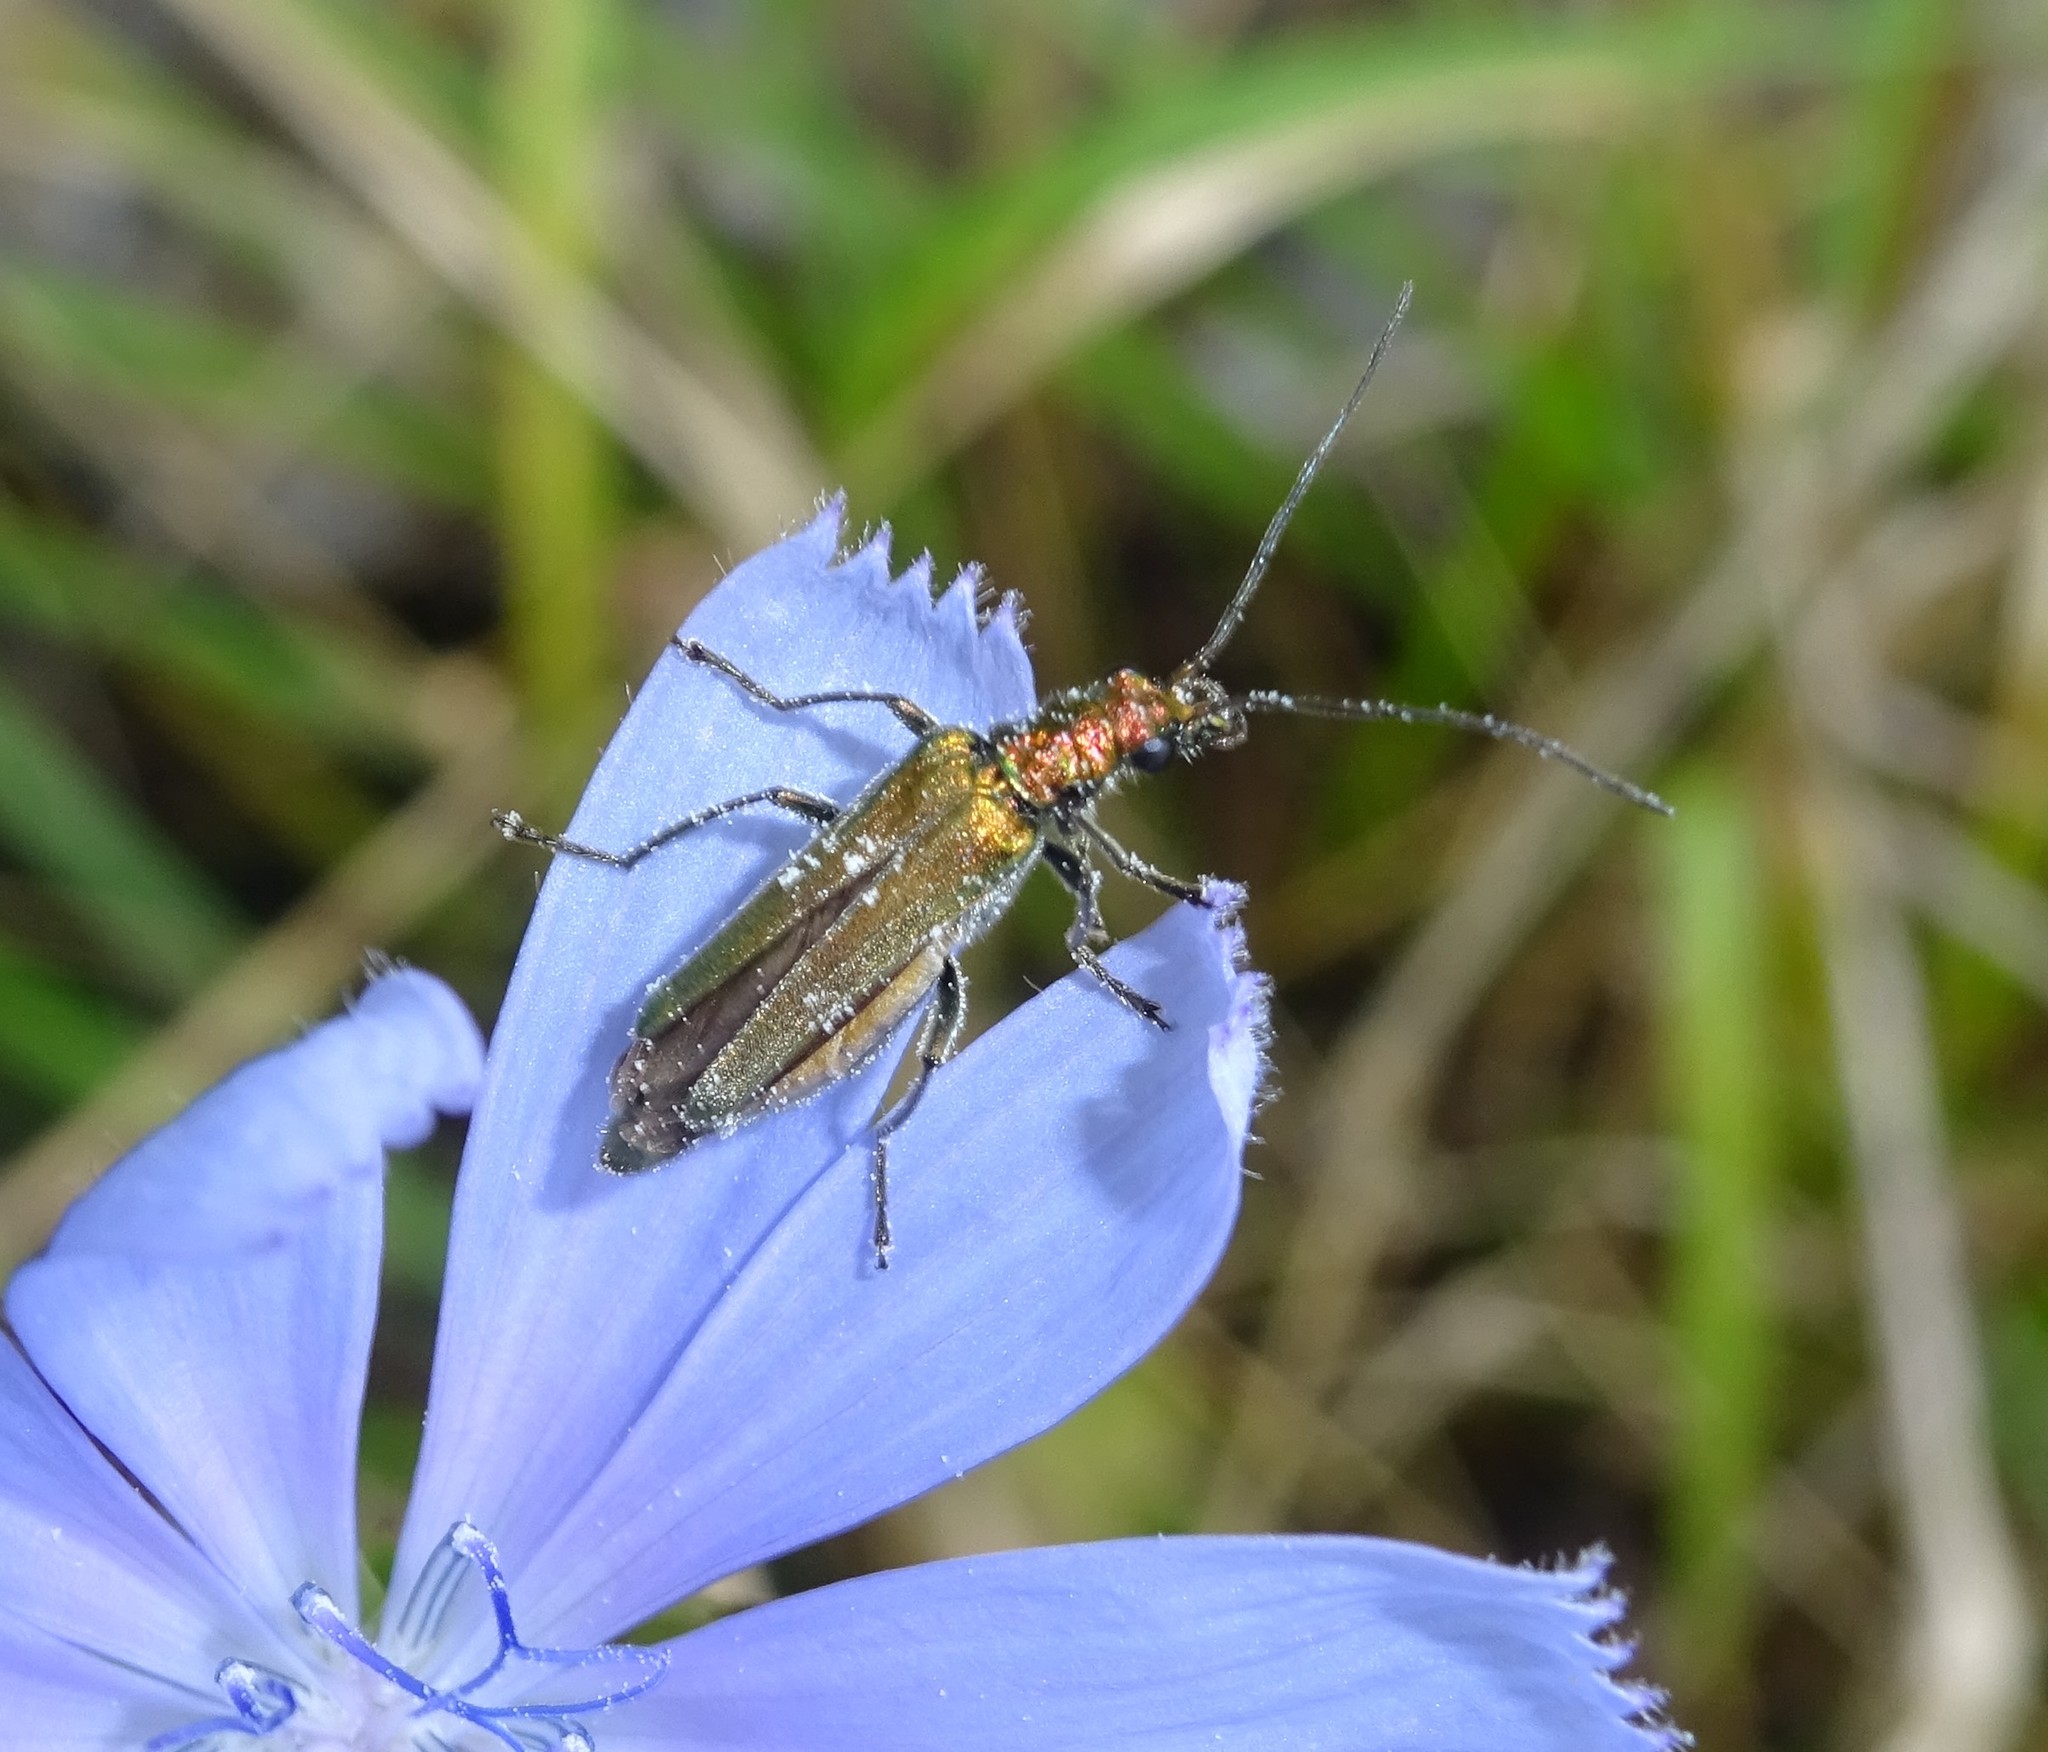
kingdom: Animalia
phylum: Arthropoda
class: Insecta
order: Coleoptera
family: Oedemeridae
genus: Oedemera
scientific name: Oedemera nobilis
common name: Swollen-thighed beetle
